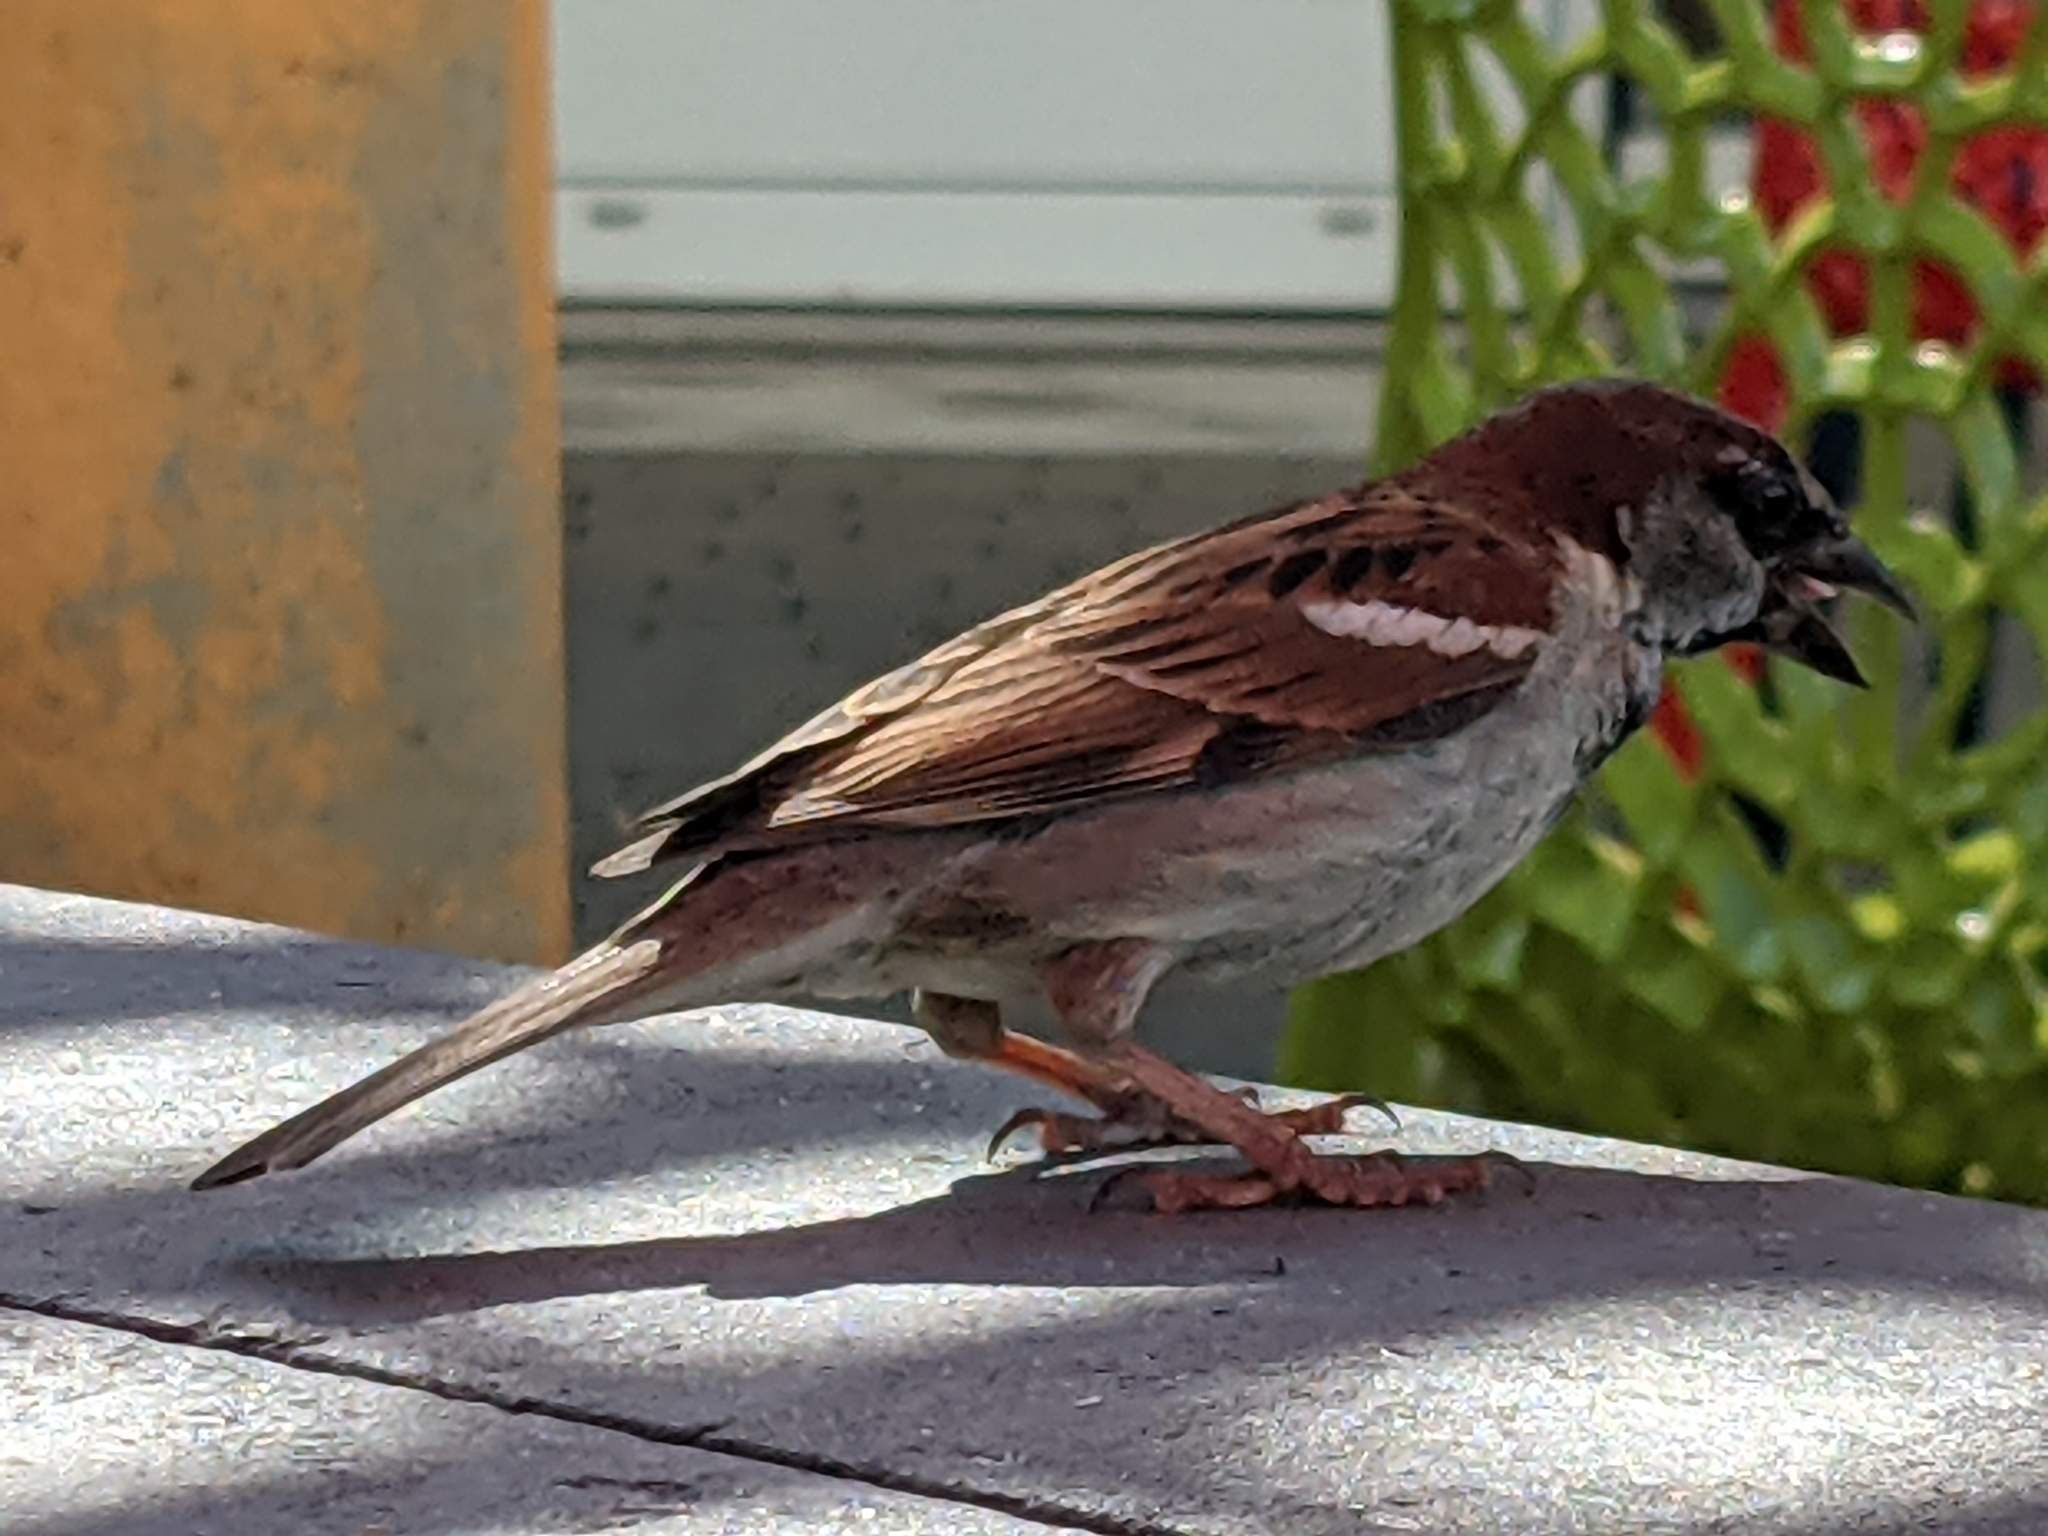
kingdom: Animalia
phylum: Chordata
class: Aves
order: Passeriformes
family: Passeridae
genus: Passer
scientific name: Passer domesticus
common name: House sparrow
